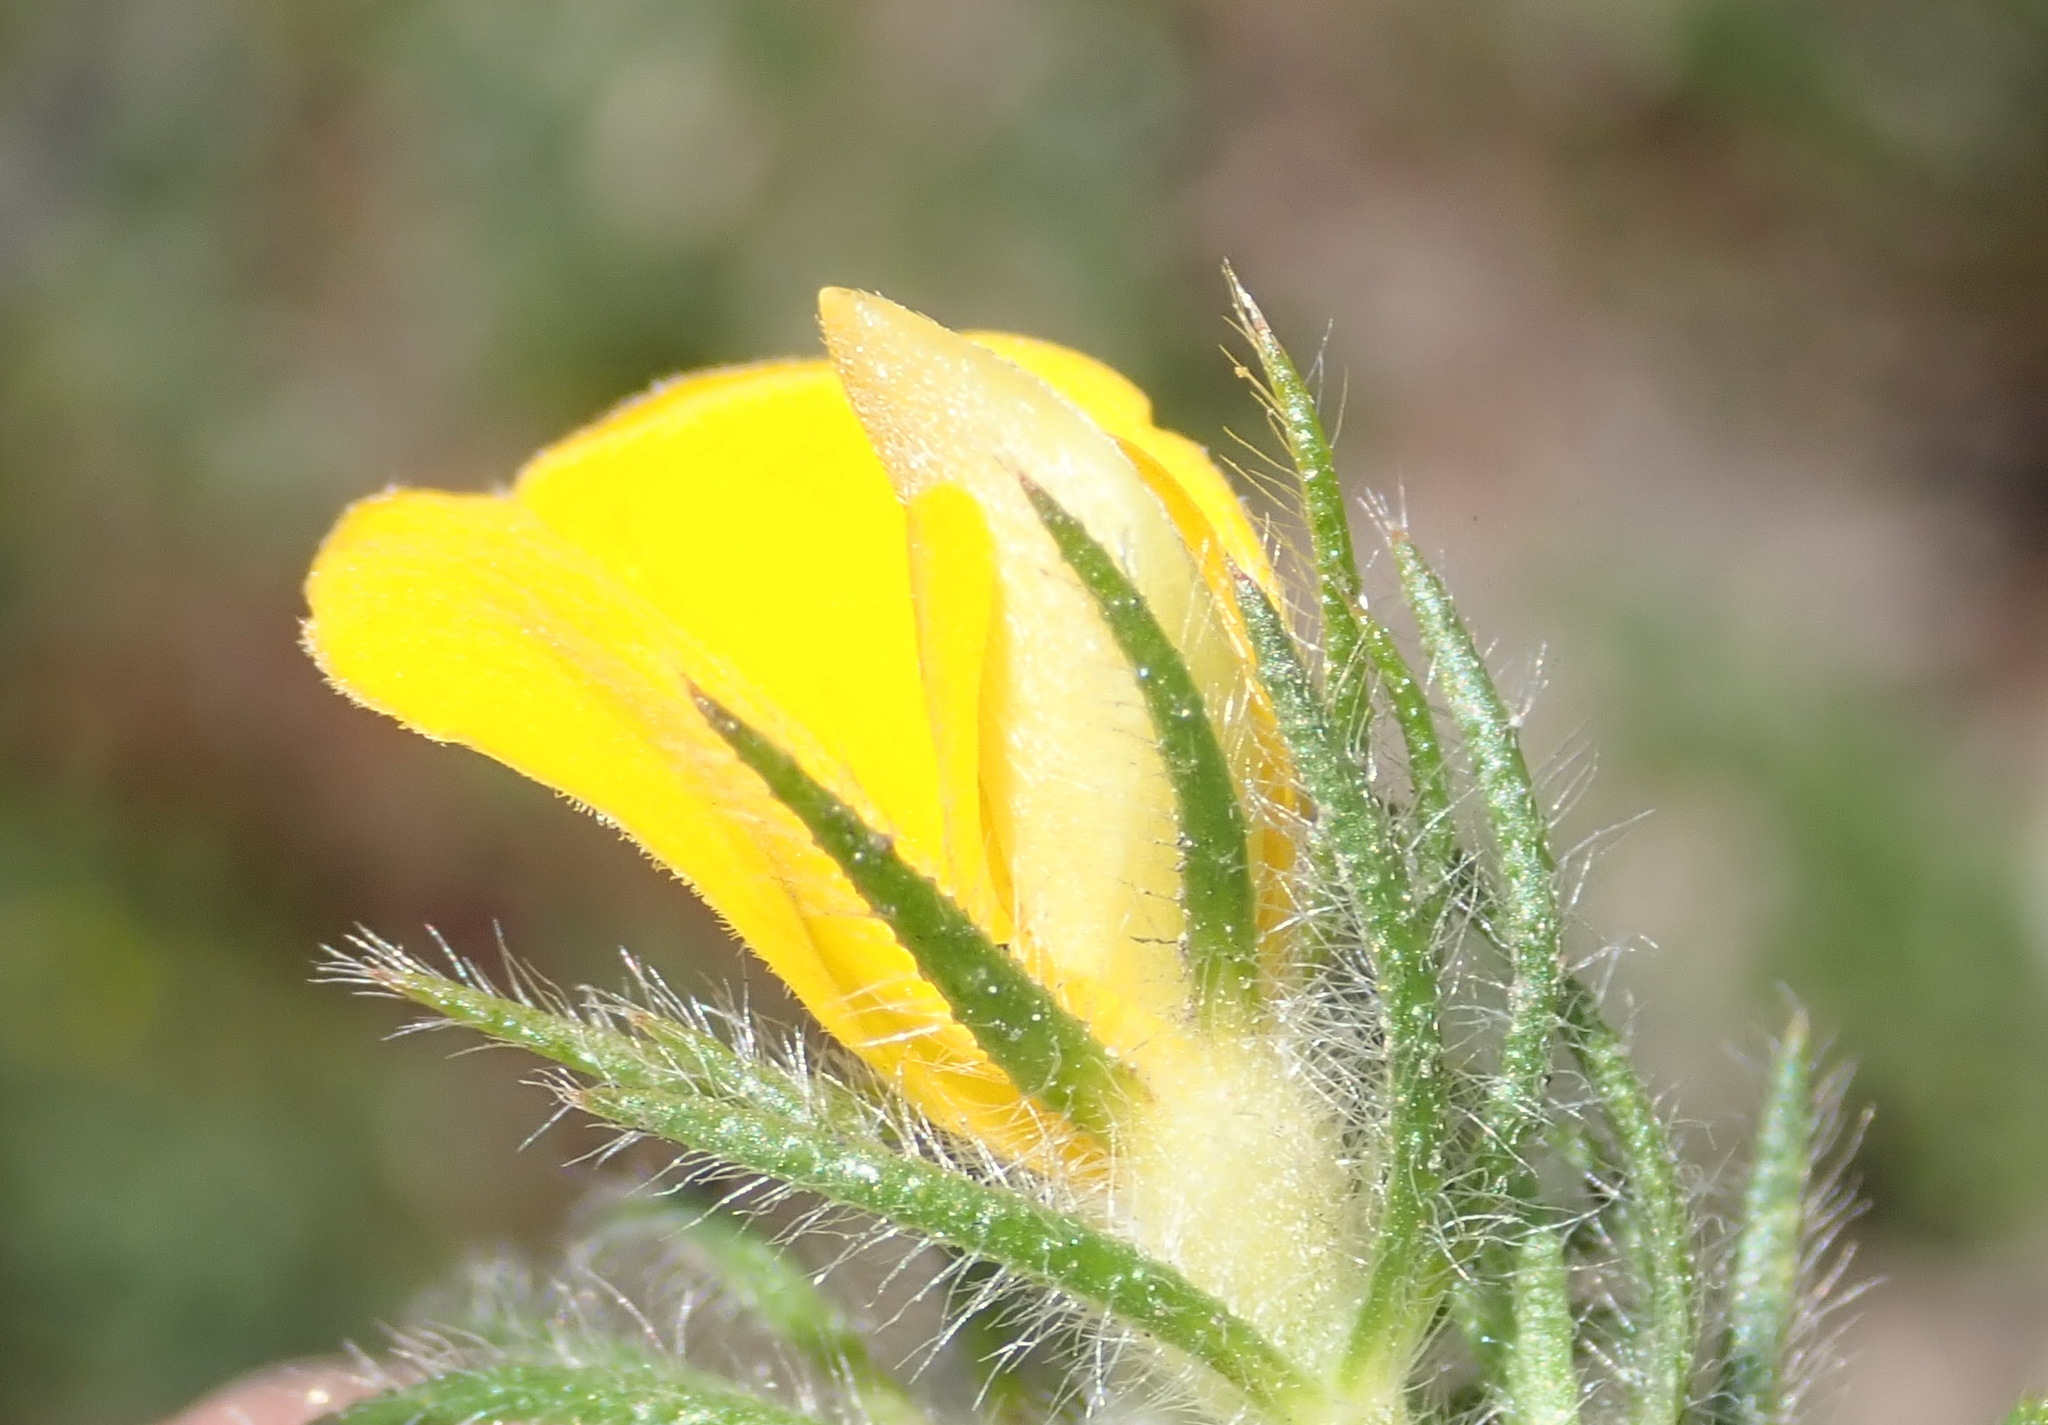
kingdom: Plantae
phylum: Tracheophyta
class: Magnoliopsida
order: Fabales
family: Fabaceae
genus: Aspalathus
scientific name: Aspalathus asparagoides
